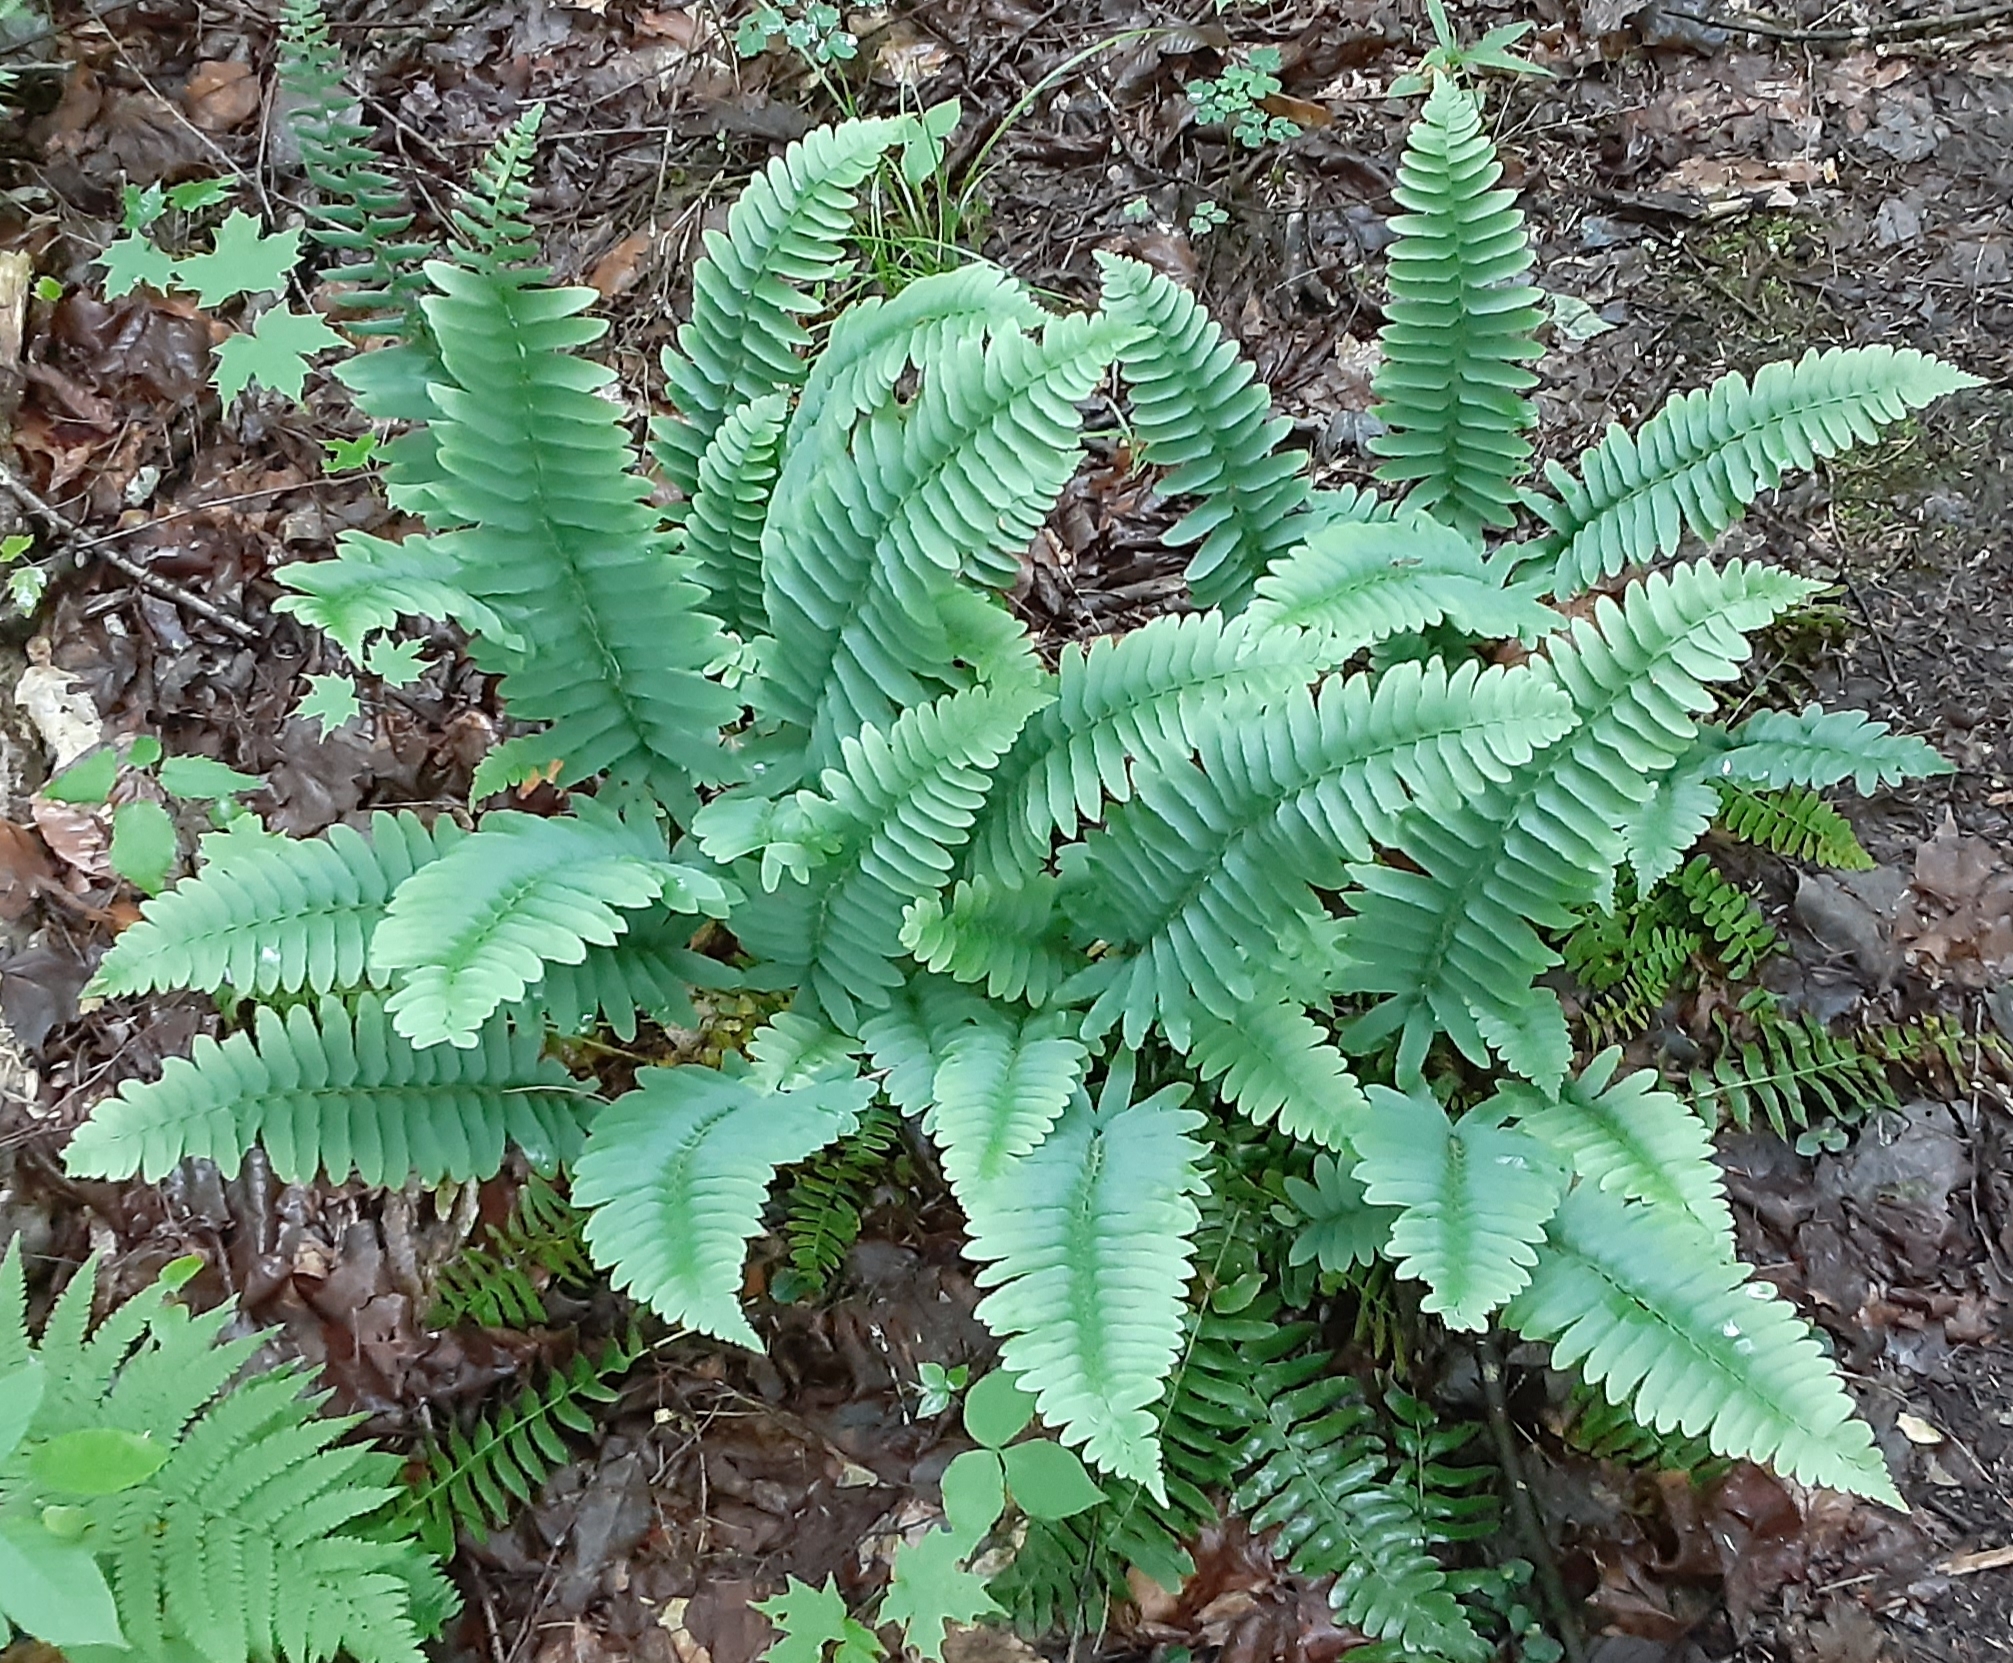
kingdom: Plantae
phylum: Tracheophyta
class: Polypodiopsida
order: Polypodiales
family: Dryopteridaceae
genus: Polystichum
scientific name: Polystichum acrostichoides
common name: Christmas fern
